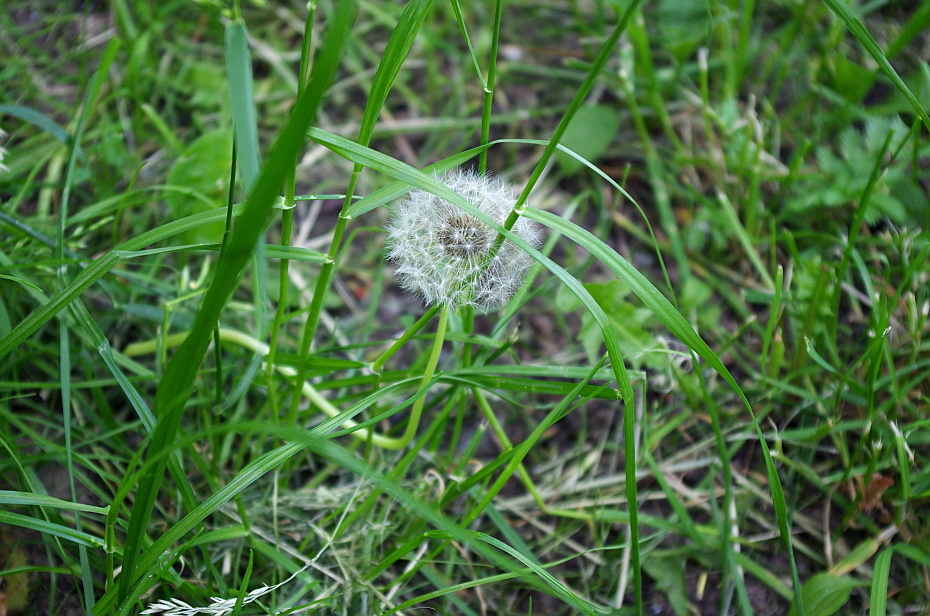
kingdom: Plantae
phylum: Tracheophyta
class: Magnoliopsida
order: Asterales
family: Asteraceae
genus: Taraxacum
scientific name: Taraxacum officinale
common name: Common dandelion
